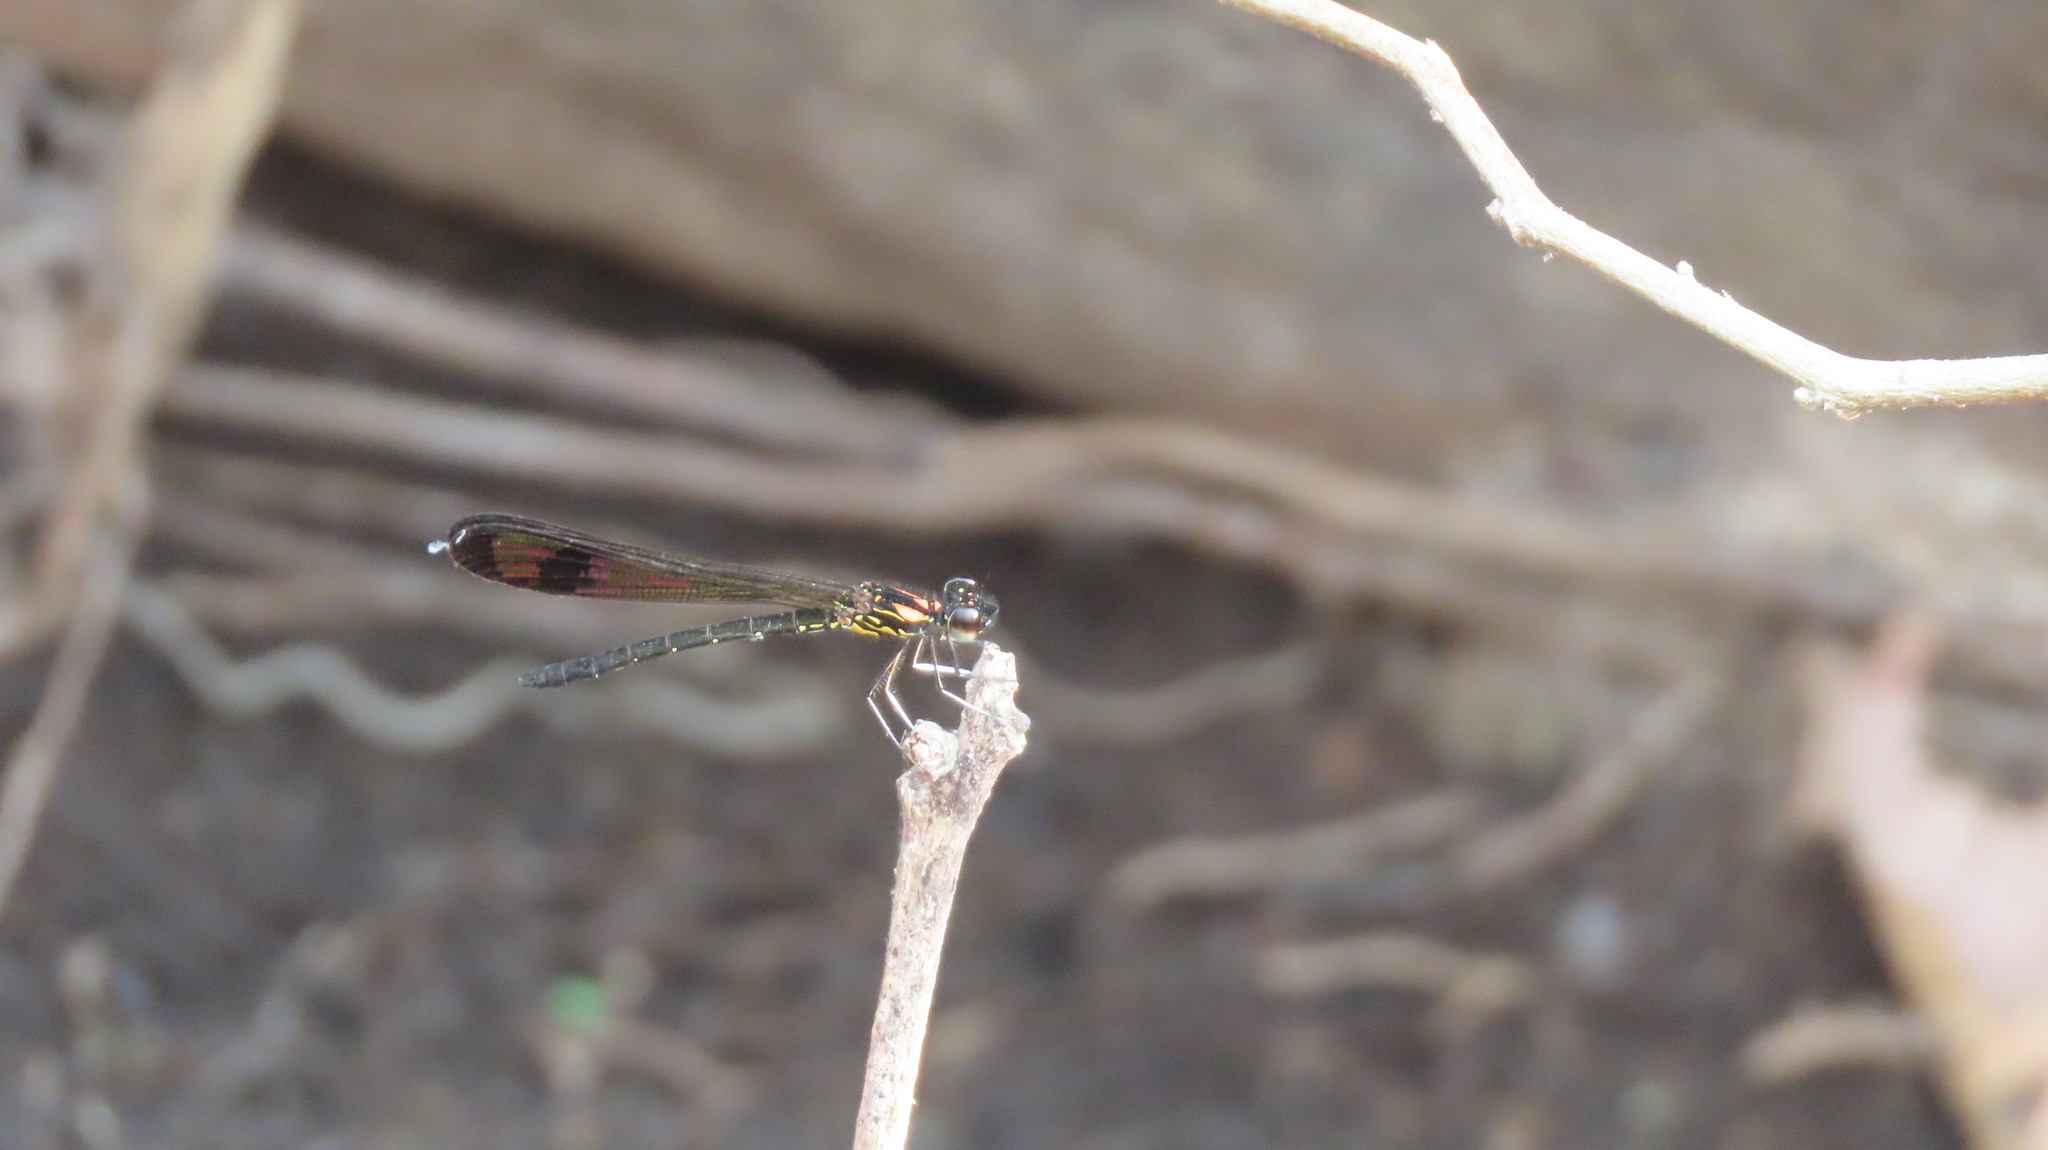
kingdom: Animalia
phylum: Arthropoda
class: Insecta
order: Odonata
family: Chlorocyphidae
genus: Heliocypha
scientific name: Heliocypha bisignata
